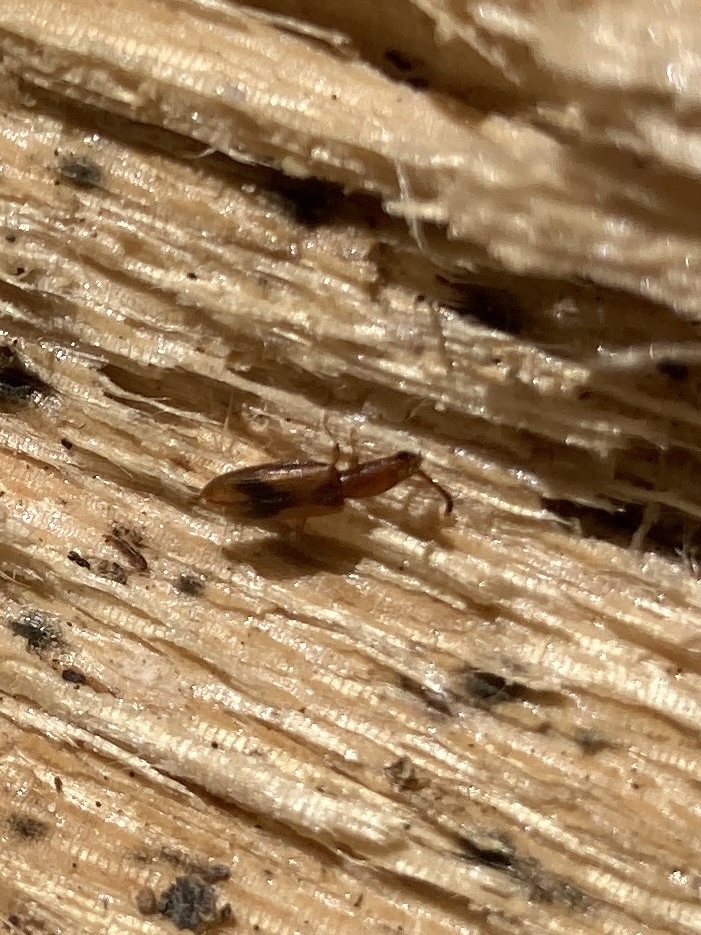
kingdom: Animalia
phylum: Arthropoda
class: Insecta
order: Coleoptera
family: Silvanidae
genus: Cryptamorpha
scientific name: Cryptamorpha desjardinsi
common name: Cryptamorpha
